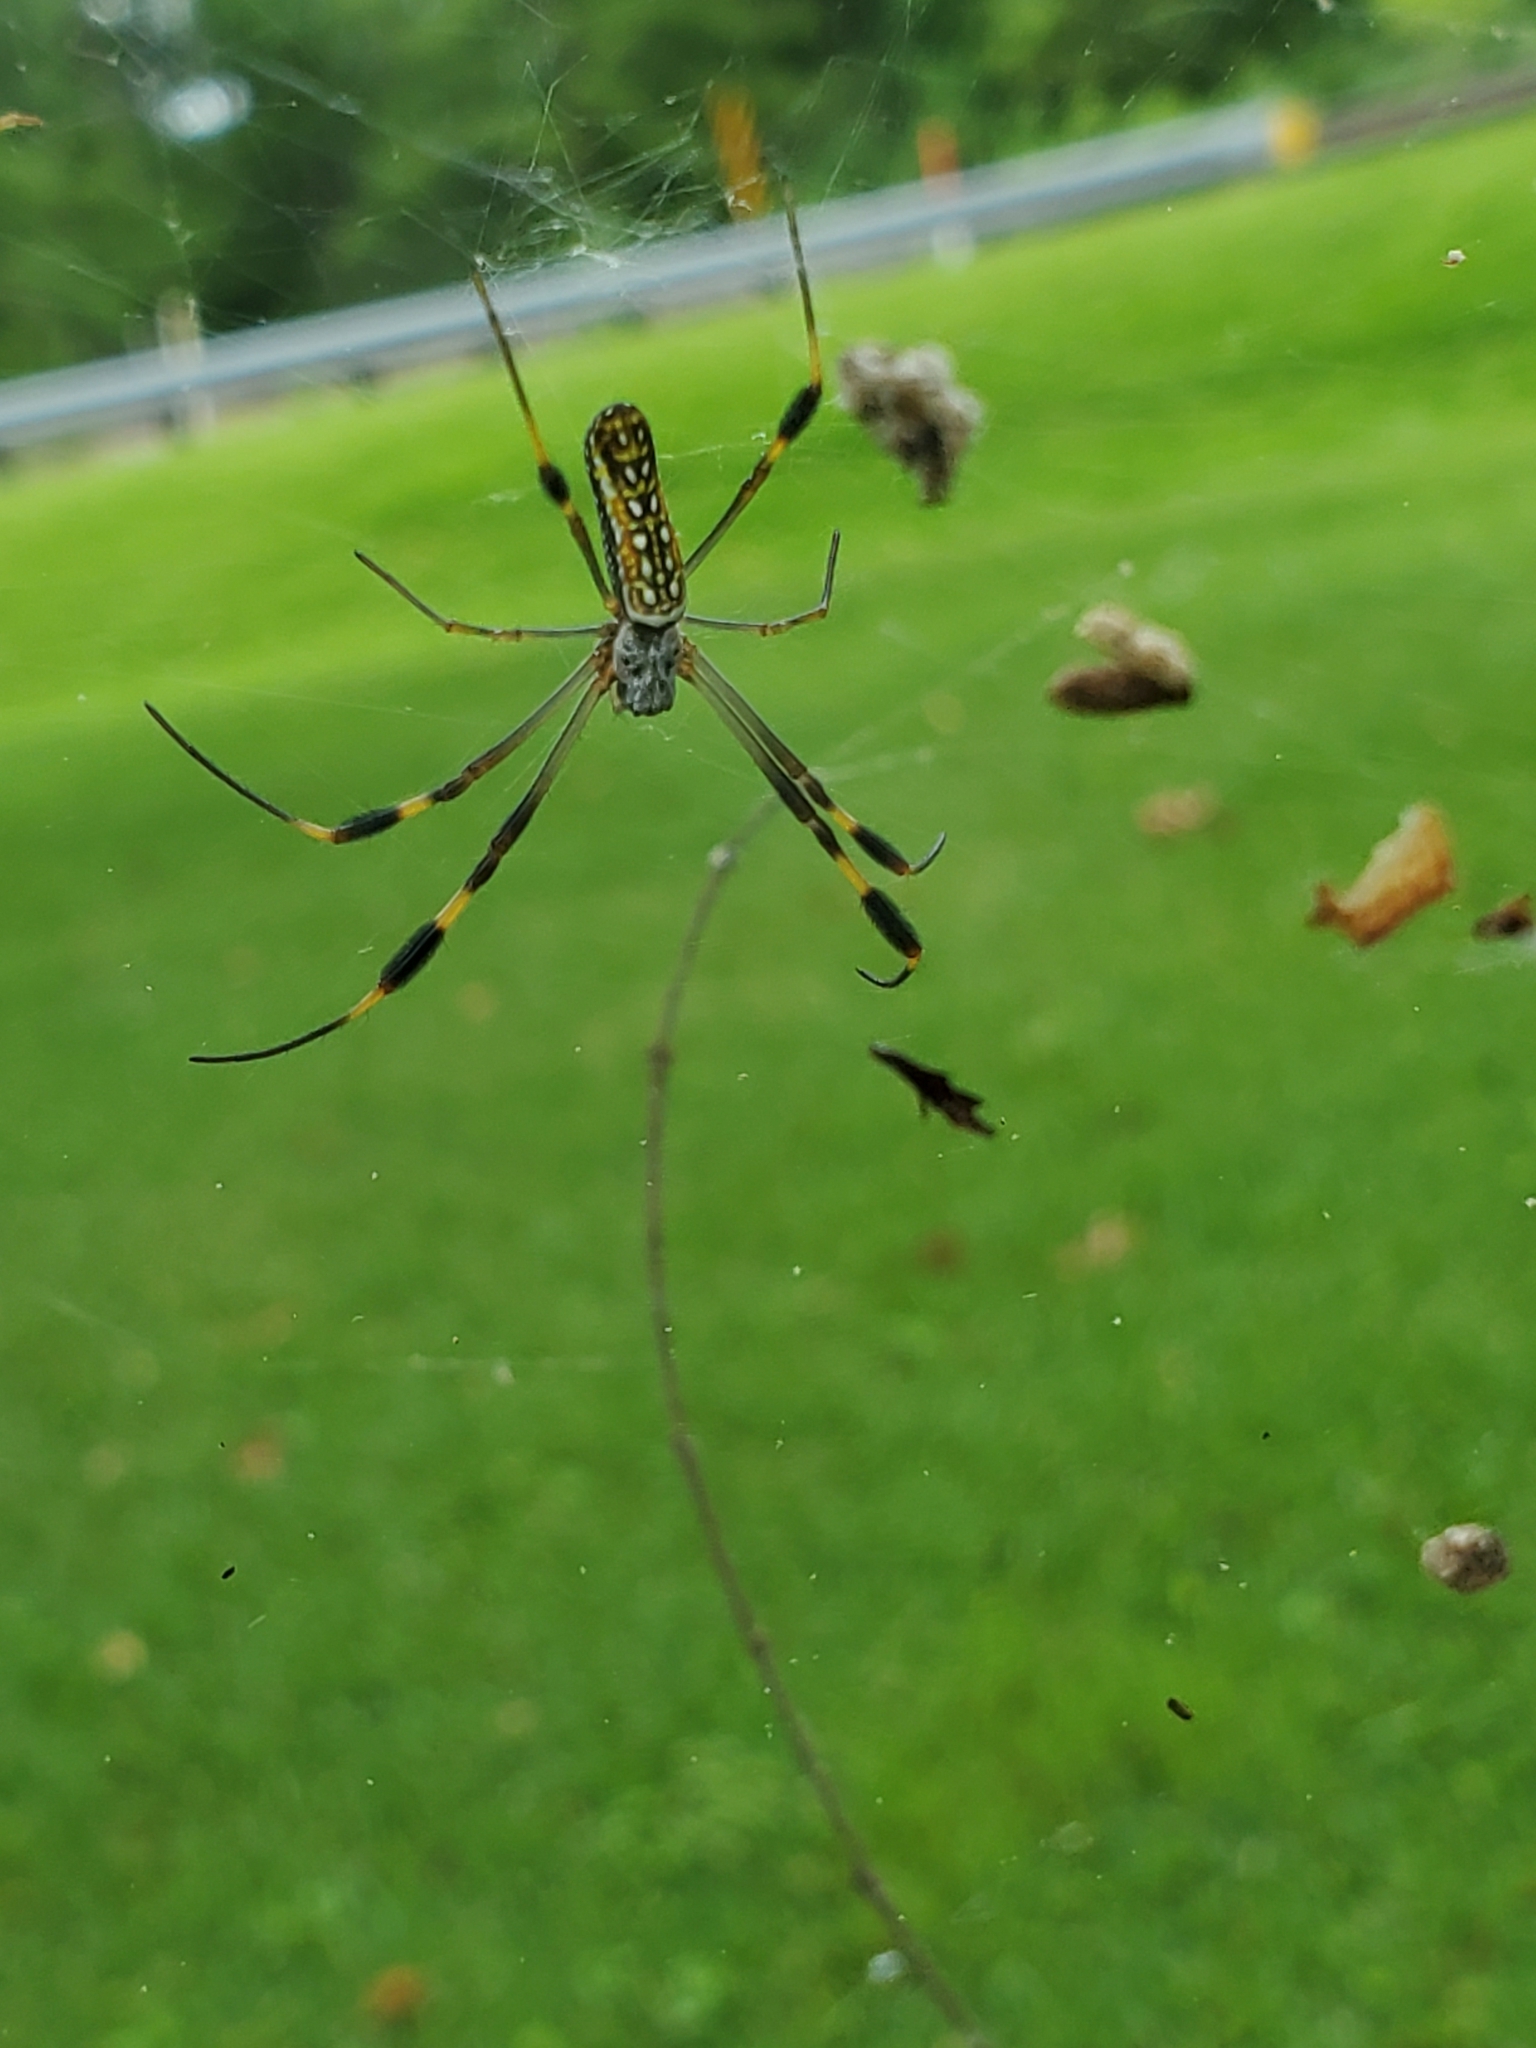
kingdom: Animalia
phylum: Arthropoda
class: Arachnida
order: Araneae
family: Araneidae
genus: Trichonephila
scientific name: Trichonephila clavipes
